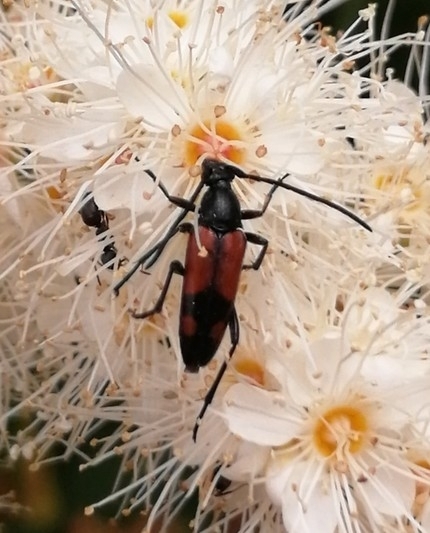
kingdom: Animalia
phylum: Arthropoda
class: Insecta
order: Coleoptera
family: Cerambycidae
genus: Stenurella
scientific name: Stenurella bifasciata
